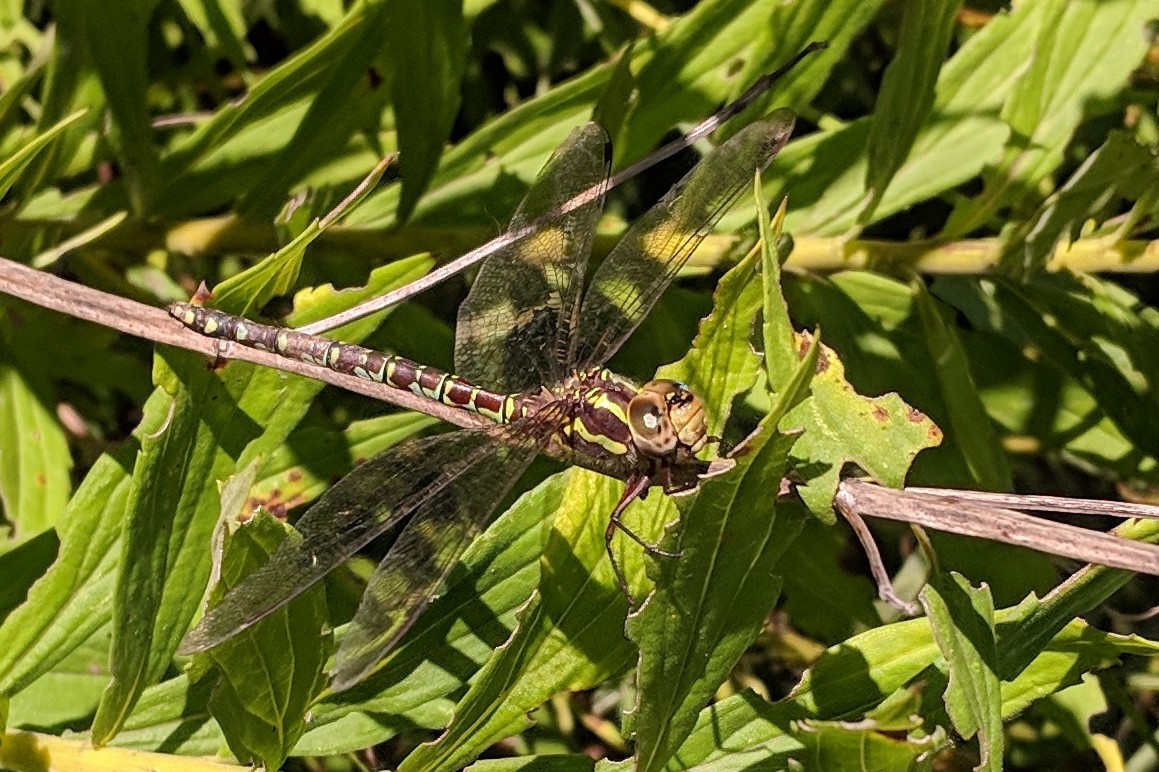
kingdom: Animalia
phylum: Arthropoda
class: Insecta
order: Odonata
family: Aeshnidae
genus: Aeshna
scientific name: Aeshna verticalis
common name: Green-striped darner
